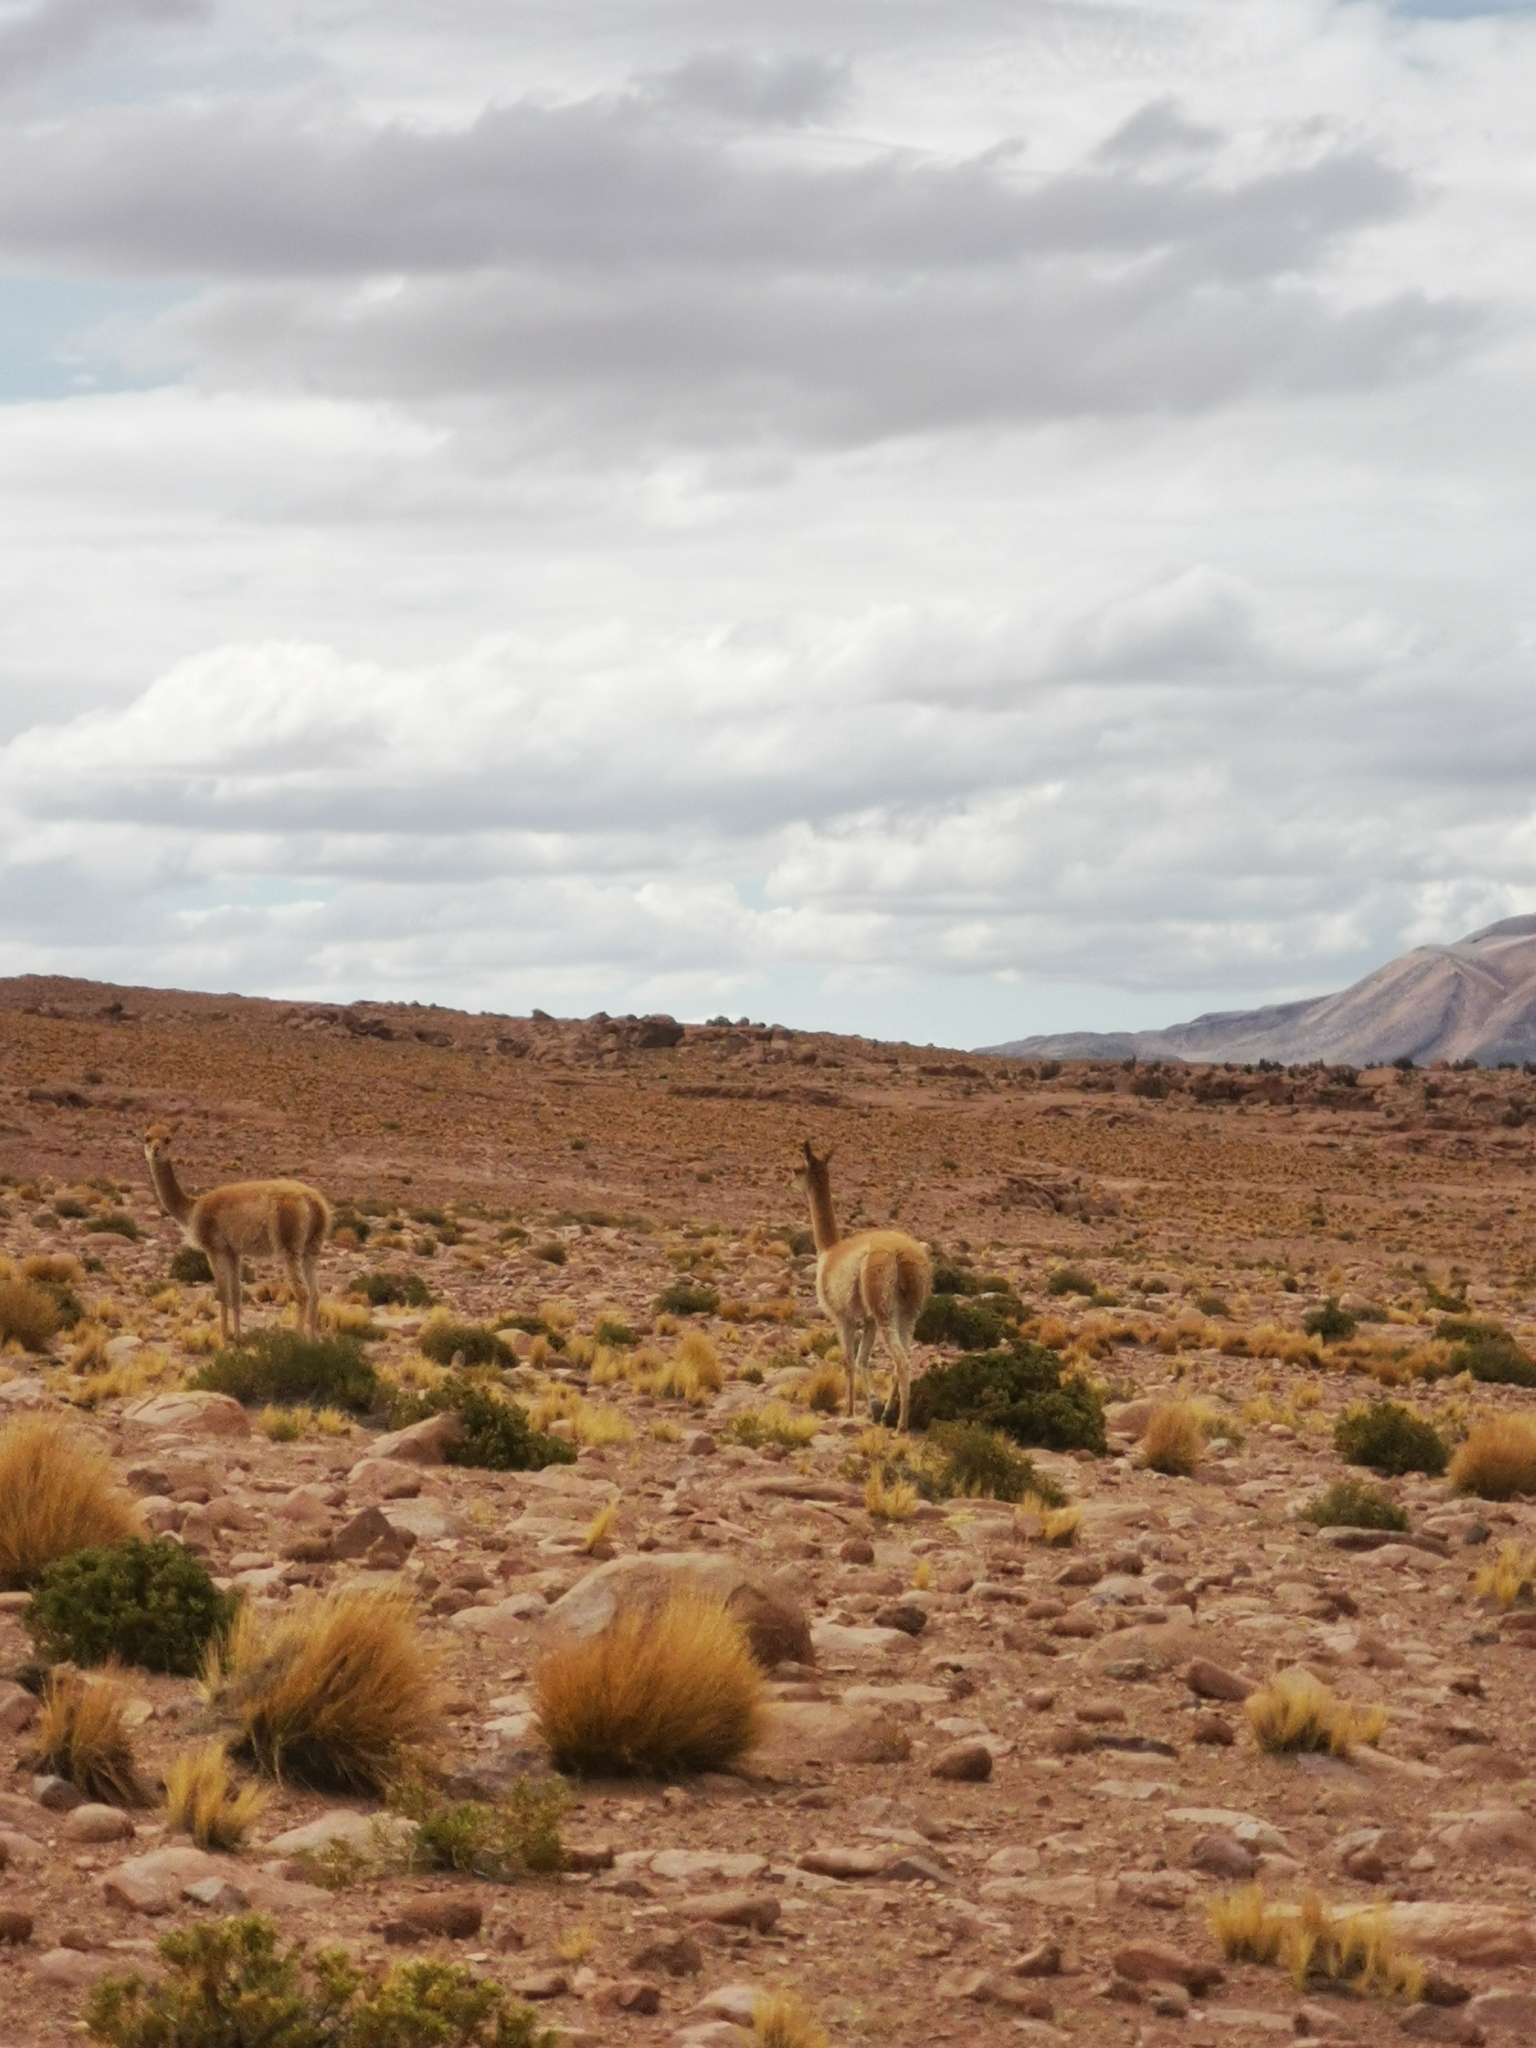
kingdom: Animalia
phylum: Chordata
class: Mammalia
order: Artiodactyla
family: Camelidae
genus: Vicugna
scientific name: Vicugna vicugna
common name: Vicugna
